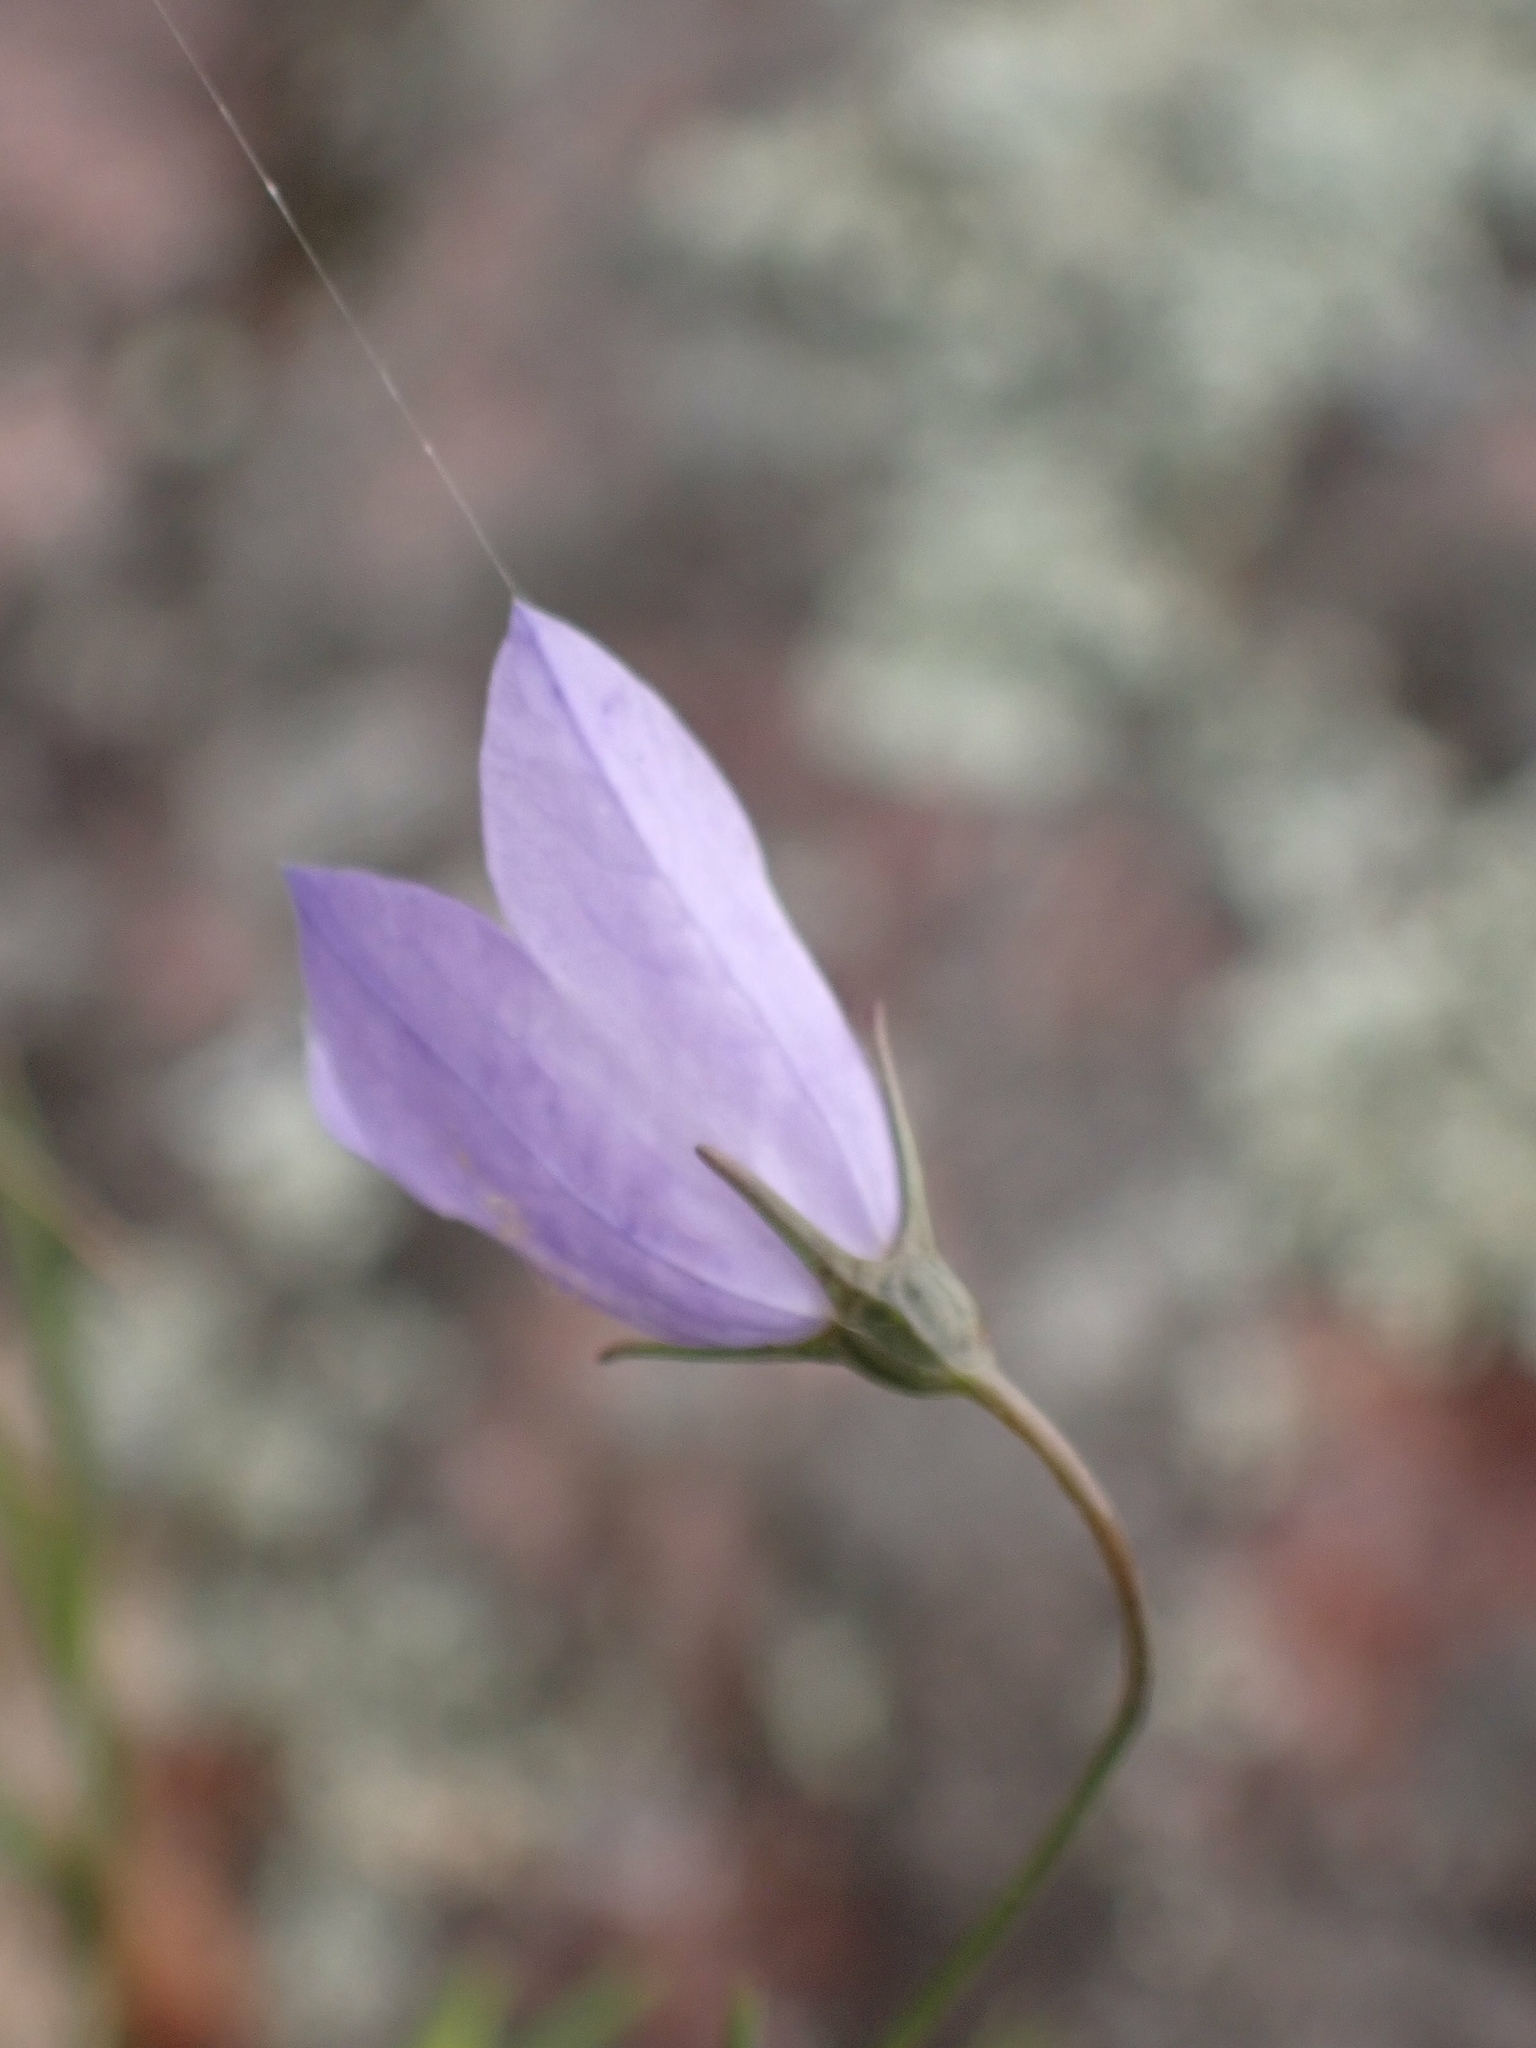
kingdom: Plantae
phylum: Tracheophyta
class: Magnoliopsida
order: Asterales
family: Campanulaceae
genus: Campanula
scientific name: Campanula petiolata
